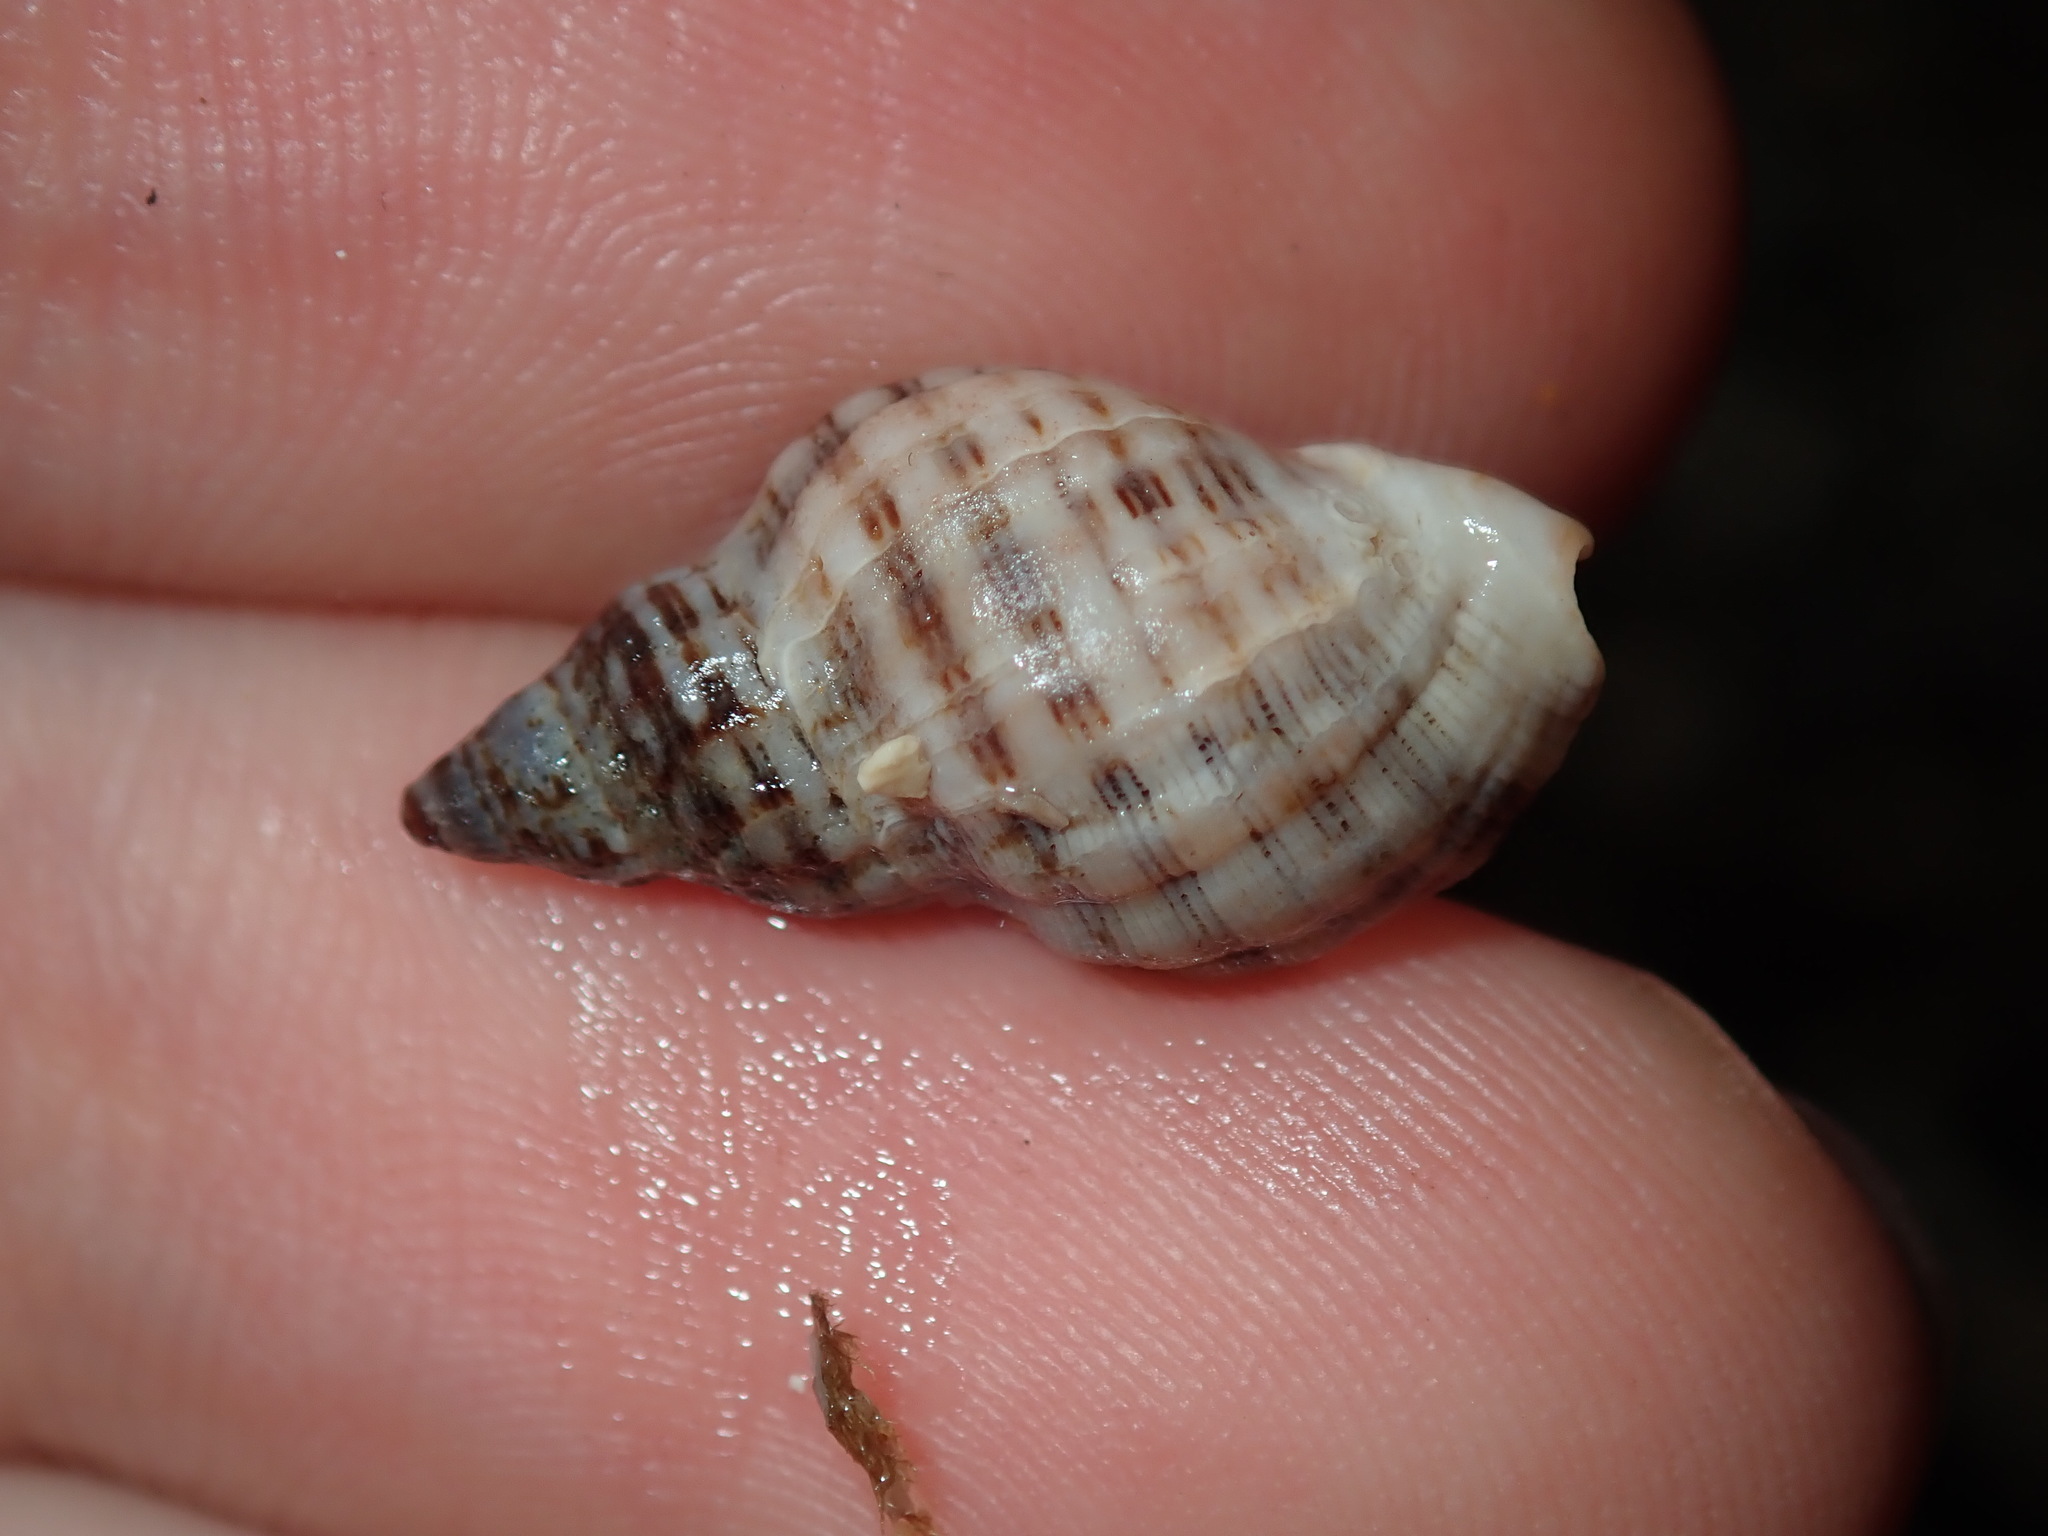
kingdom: Animalia
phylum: Mollusca
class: Gastropoda
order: Neogastropoda
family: Muricidae
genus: Agnewia
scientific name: Agnewia tritoniformis
